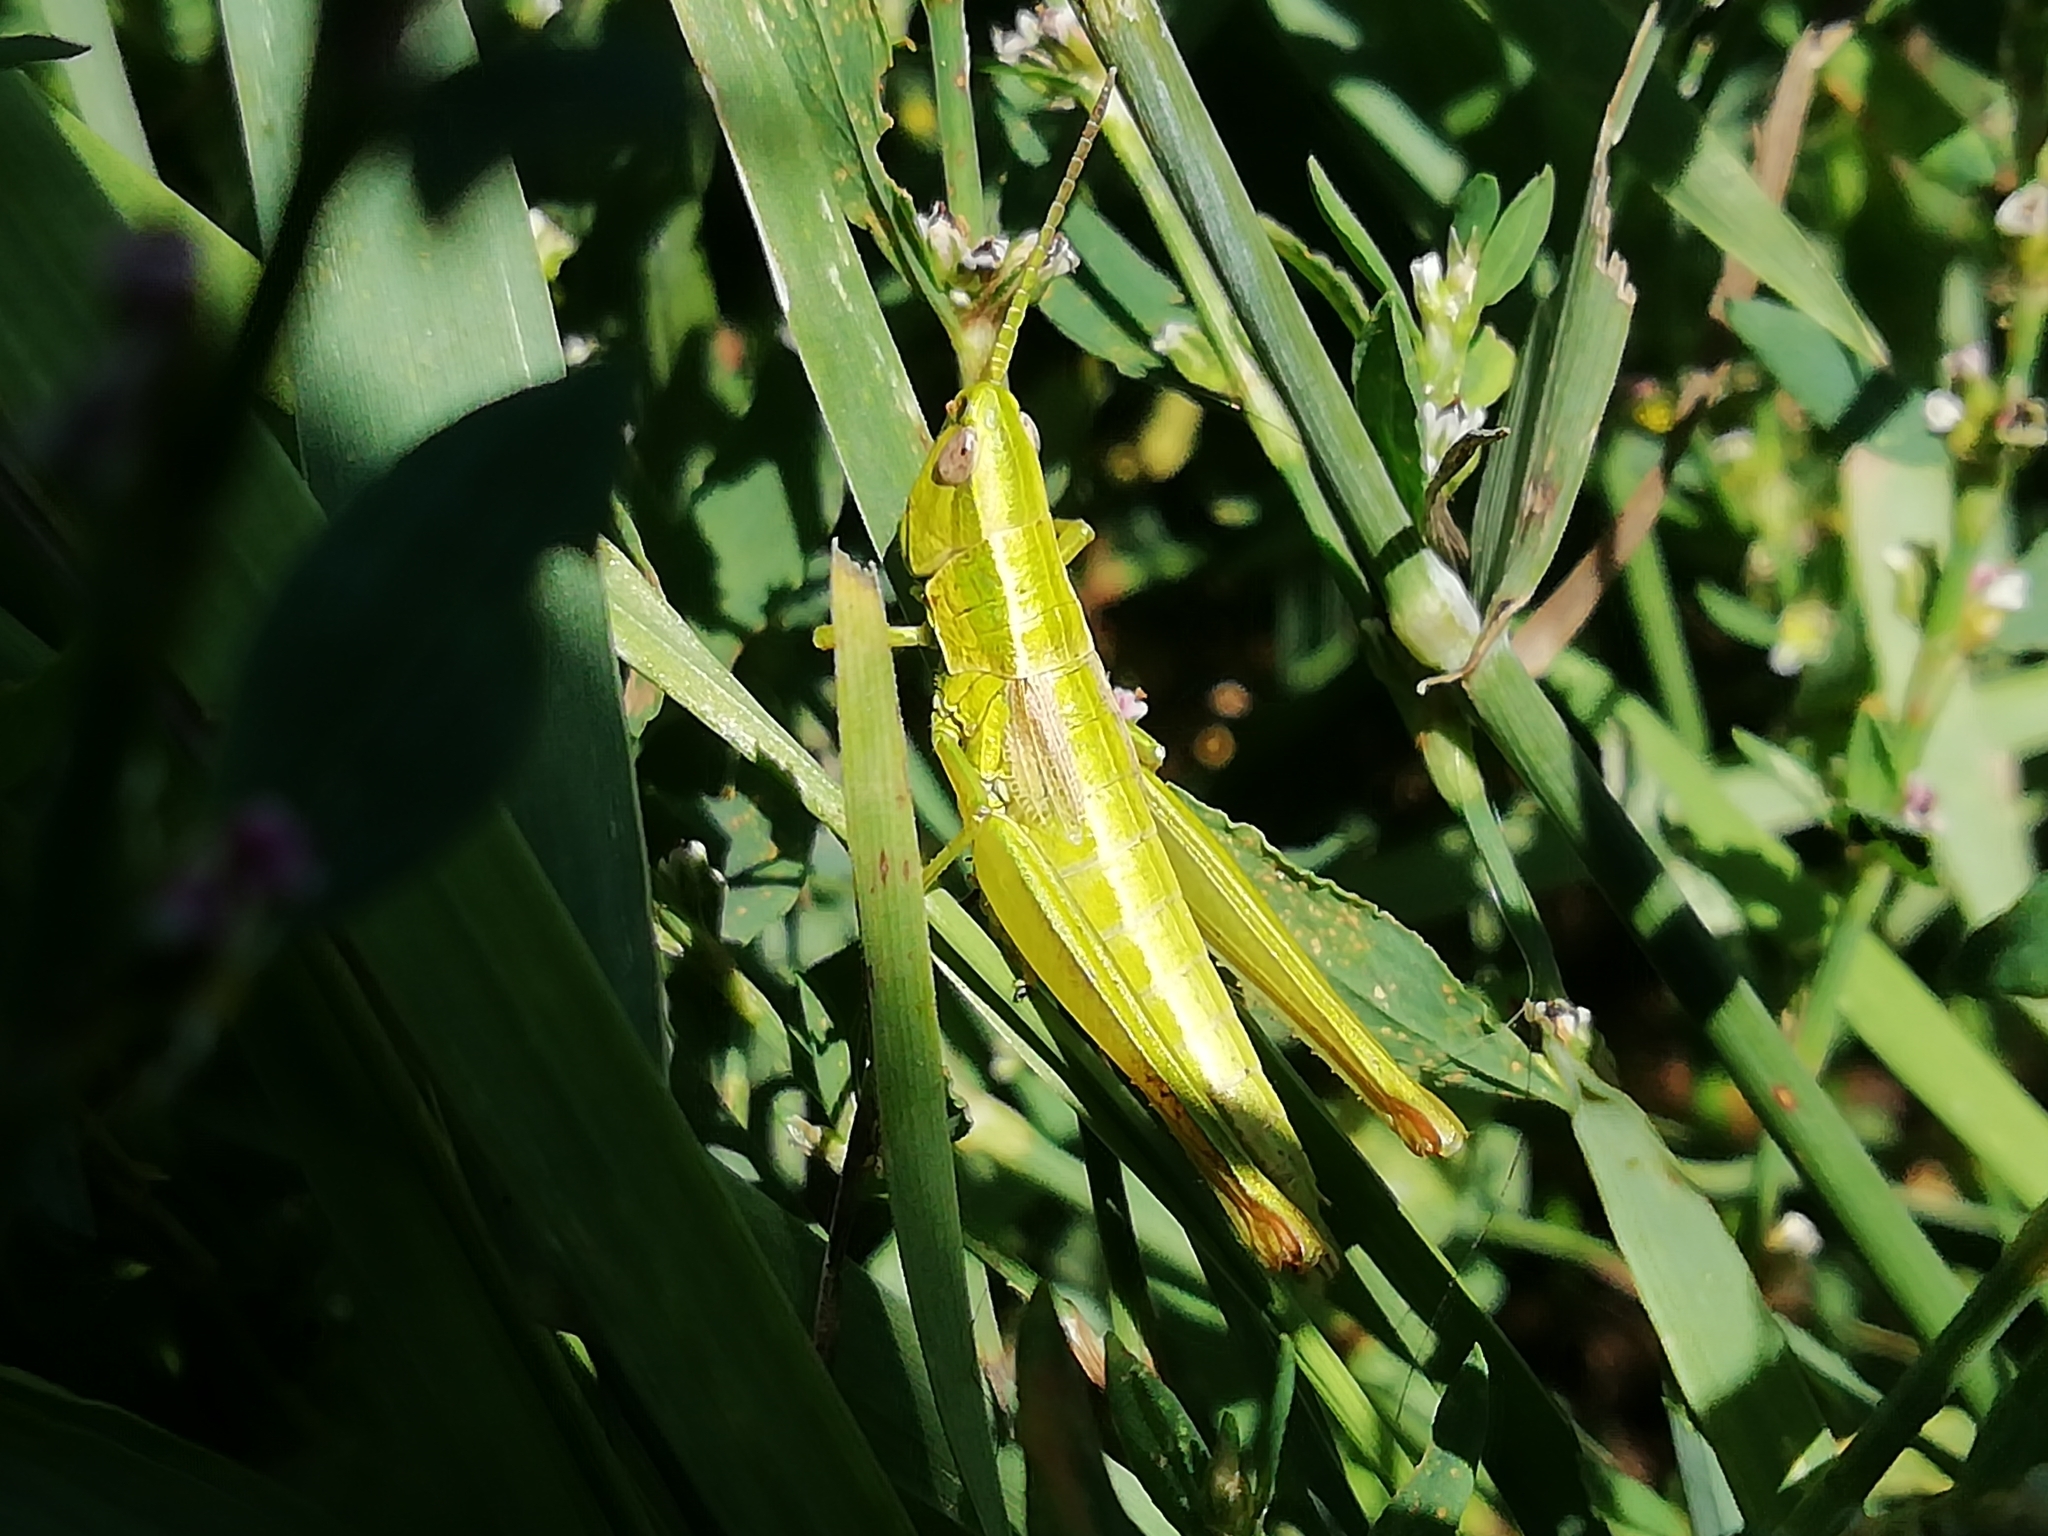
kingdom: Animalia
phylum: Arthropoda
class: Insecta
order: Orthoptera
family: Acrididae
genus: Euthystira
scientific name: Euthystira brachyptera
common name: Small gold grasshopper
